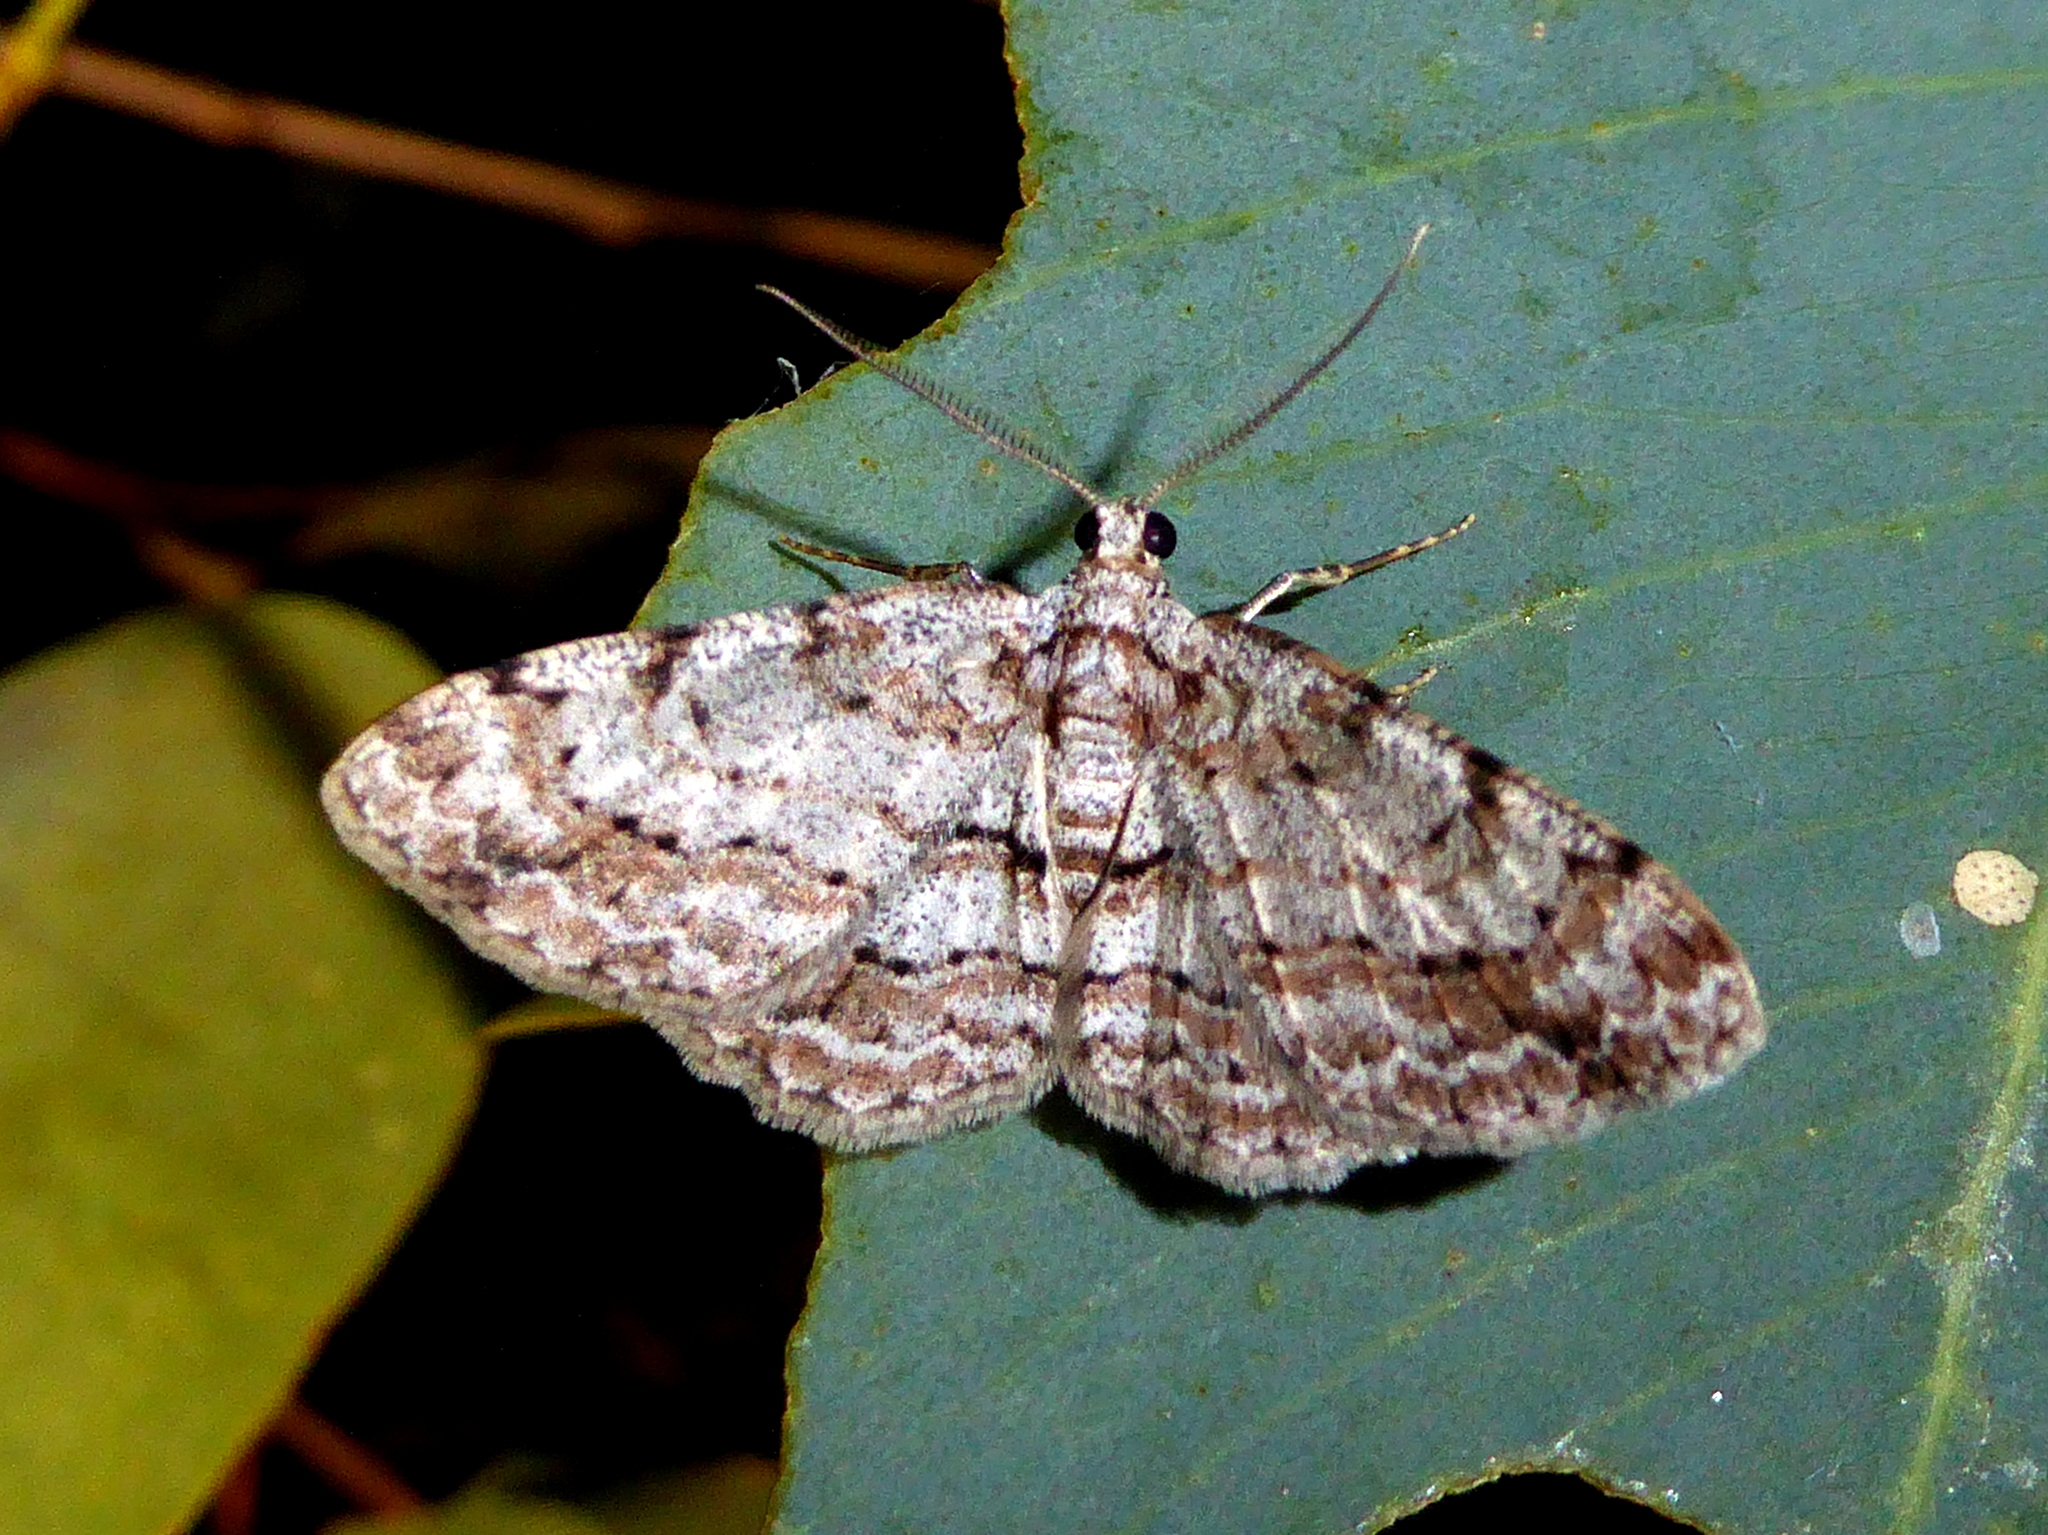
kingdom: Animalia
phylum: Arthropoda
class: Insecta
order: Lepidoptera
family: Geometridae
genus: Didymoctenia
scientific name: Didymoctenia exsuperata
